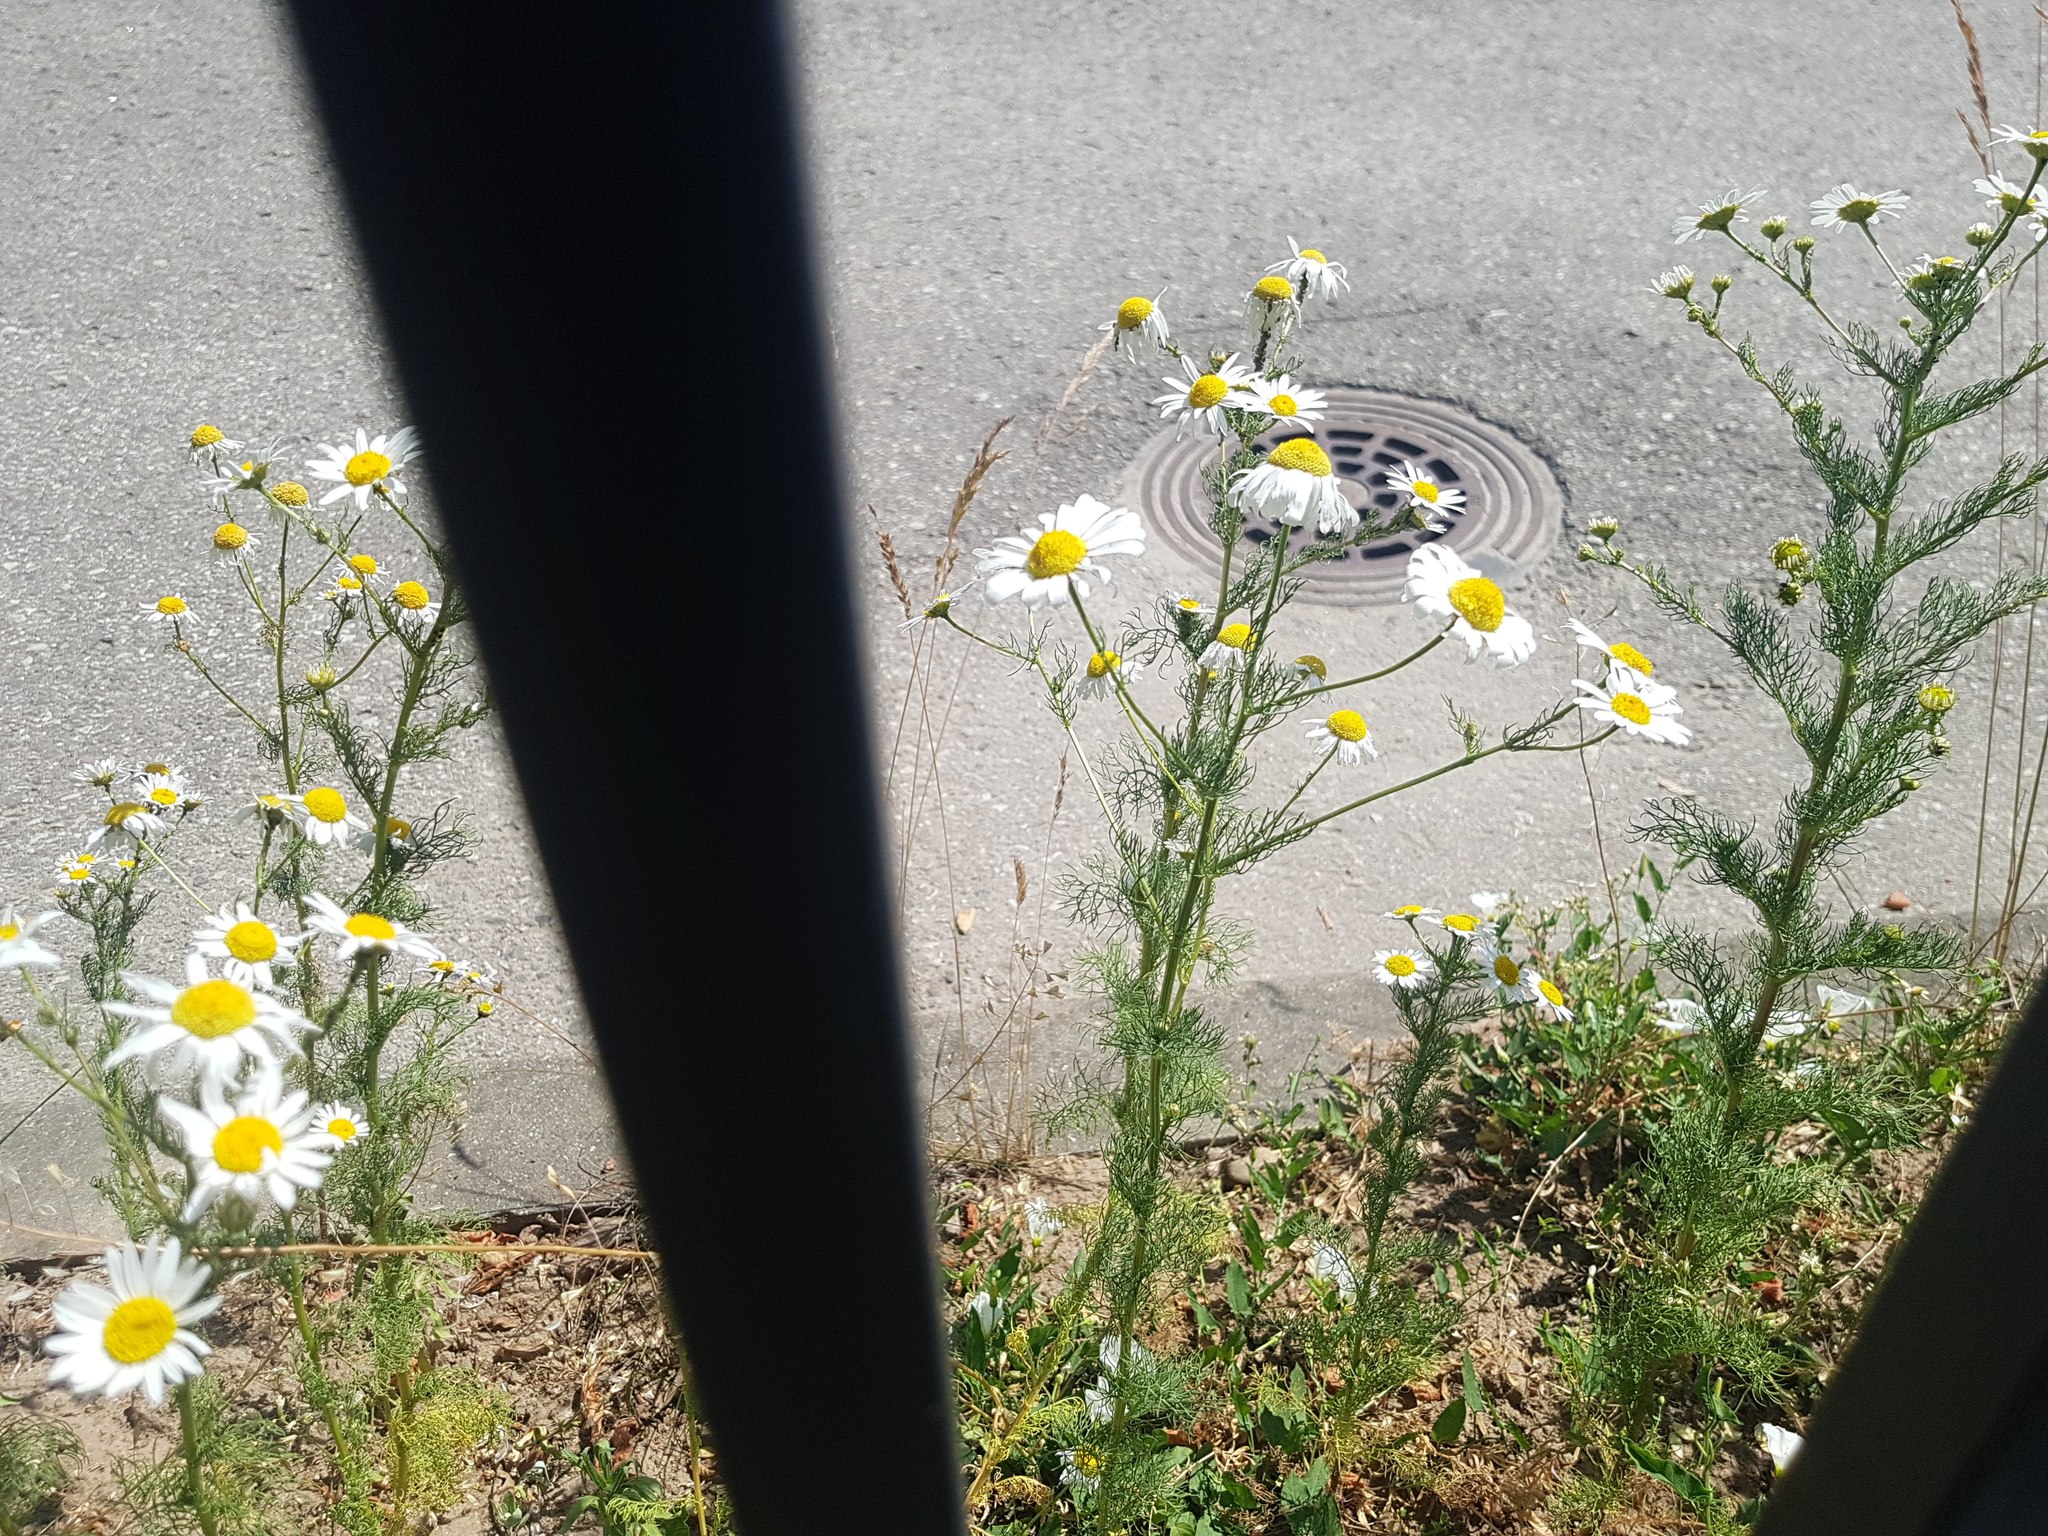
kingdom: Plantae
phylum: Tracheophyta
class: Magnoliopsida
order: Asterales
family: Asteraceae
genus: Tripleurospermum
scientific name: Tripleurospermum inodorum
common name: Scentless mayweed
